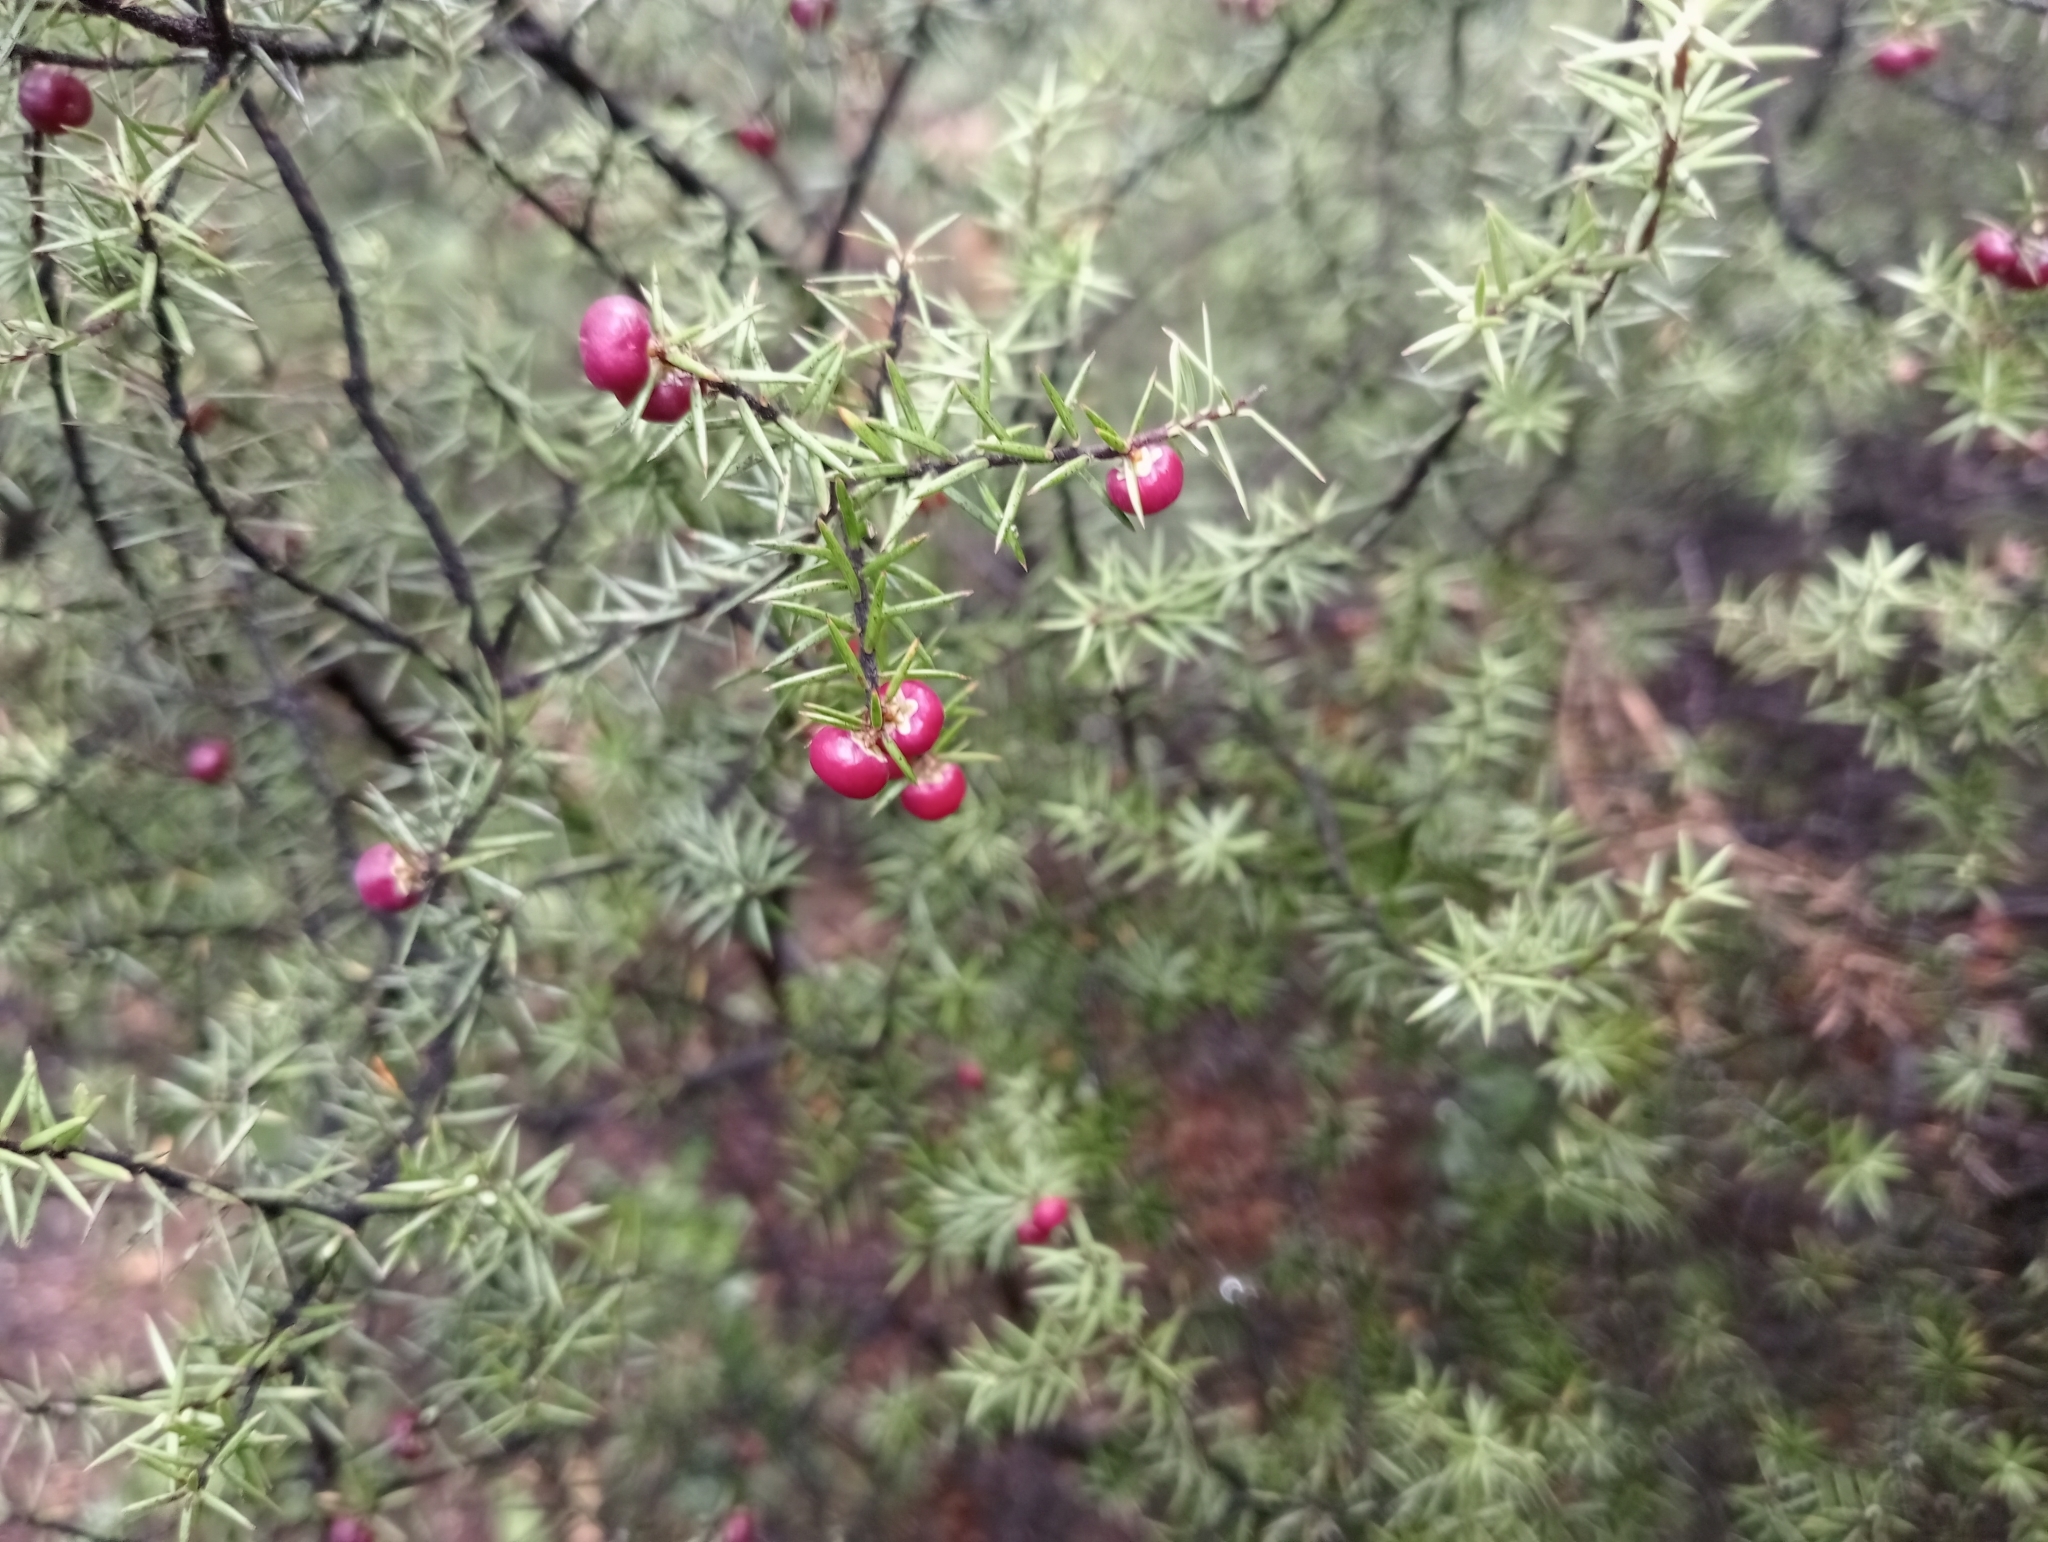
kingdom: Plantae
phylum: Tracheophyta
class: Magnoliopsida
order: Ericales
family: Ericaceae
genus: Leptecophylla
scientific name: Leptecophylla juniperina
